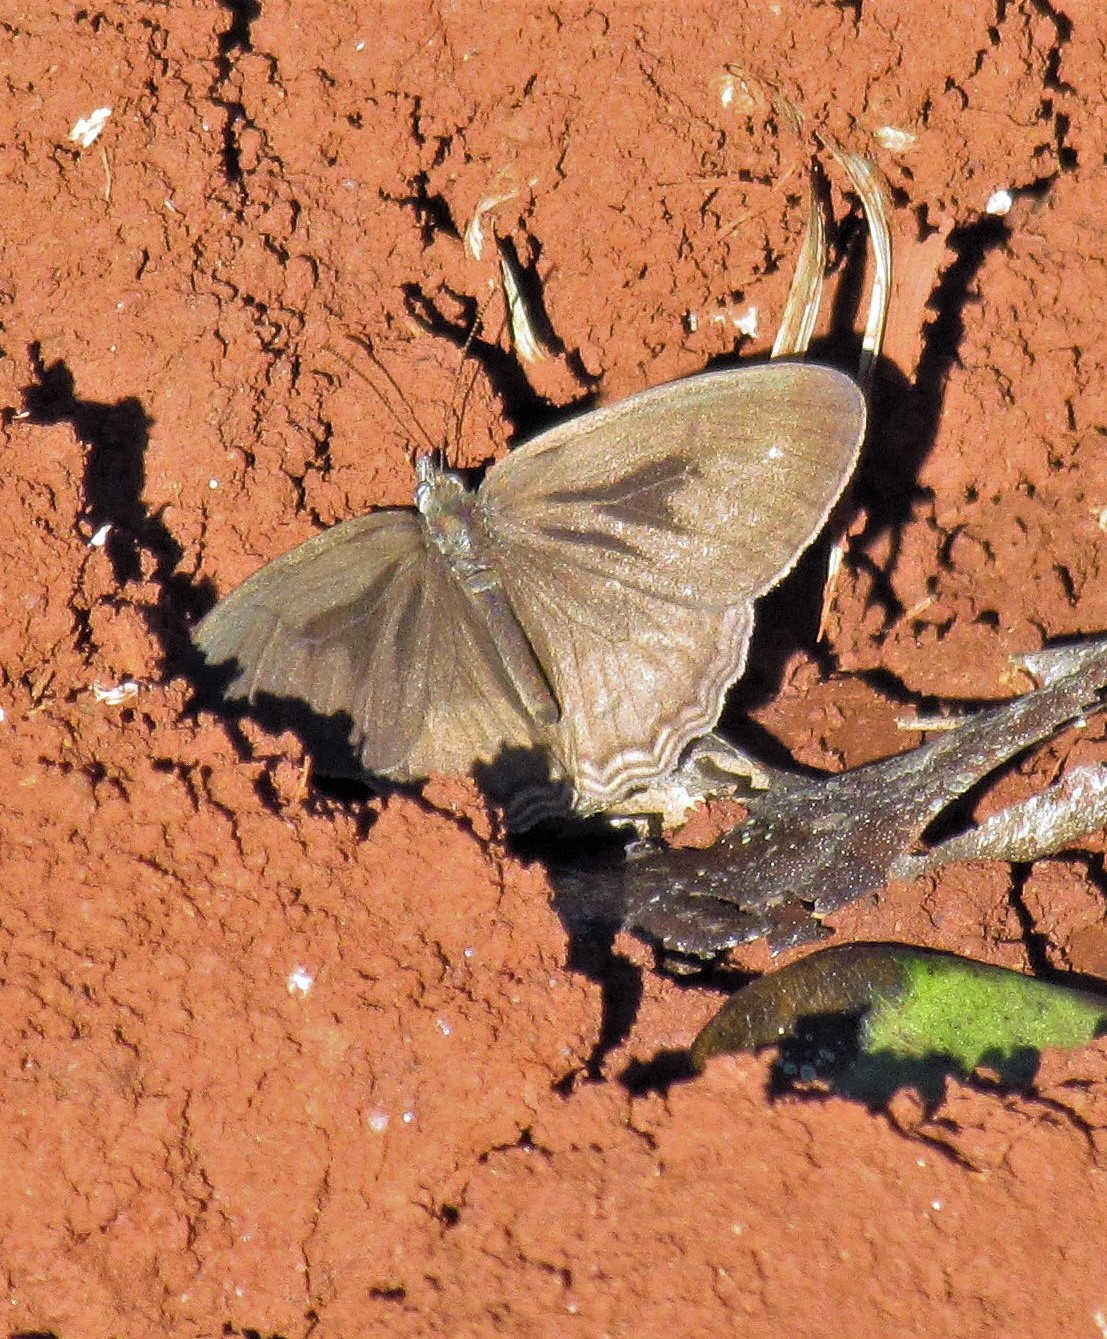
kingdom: Animalia
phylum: Arthropoda
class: Insecta
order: Lepidoptera
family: Nymphalidae
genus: Splendeuptychia
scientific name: Splendeuptychia libitina
